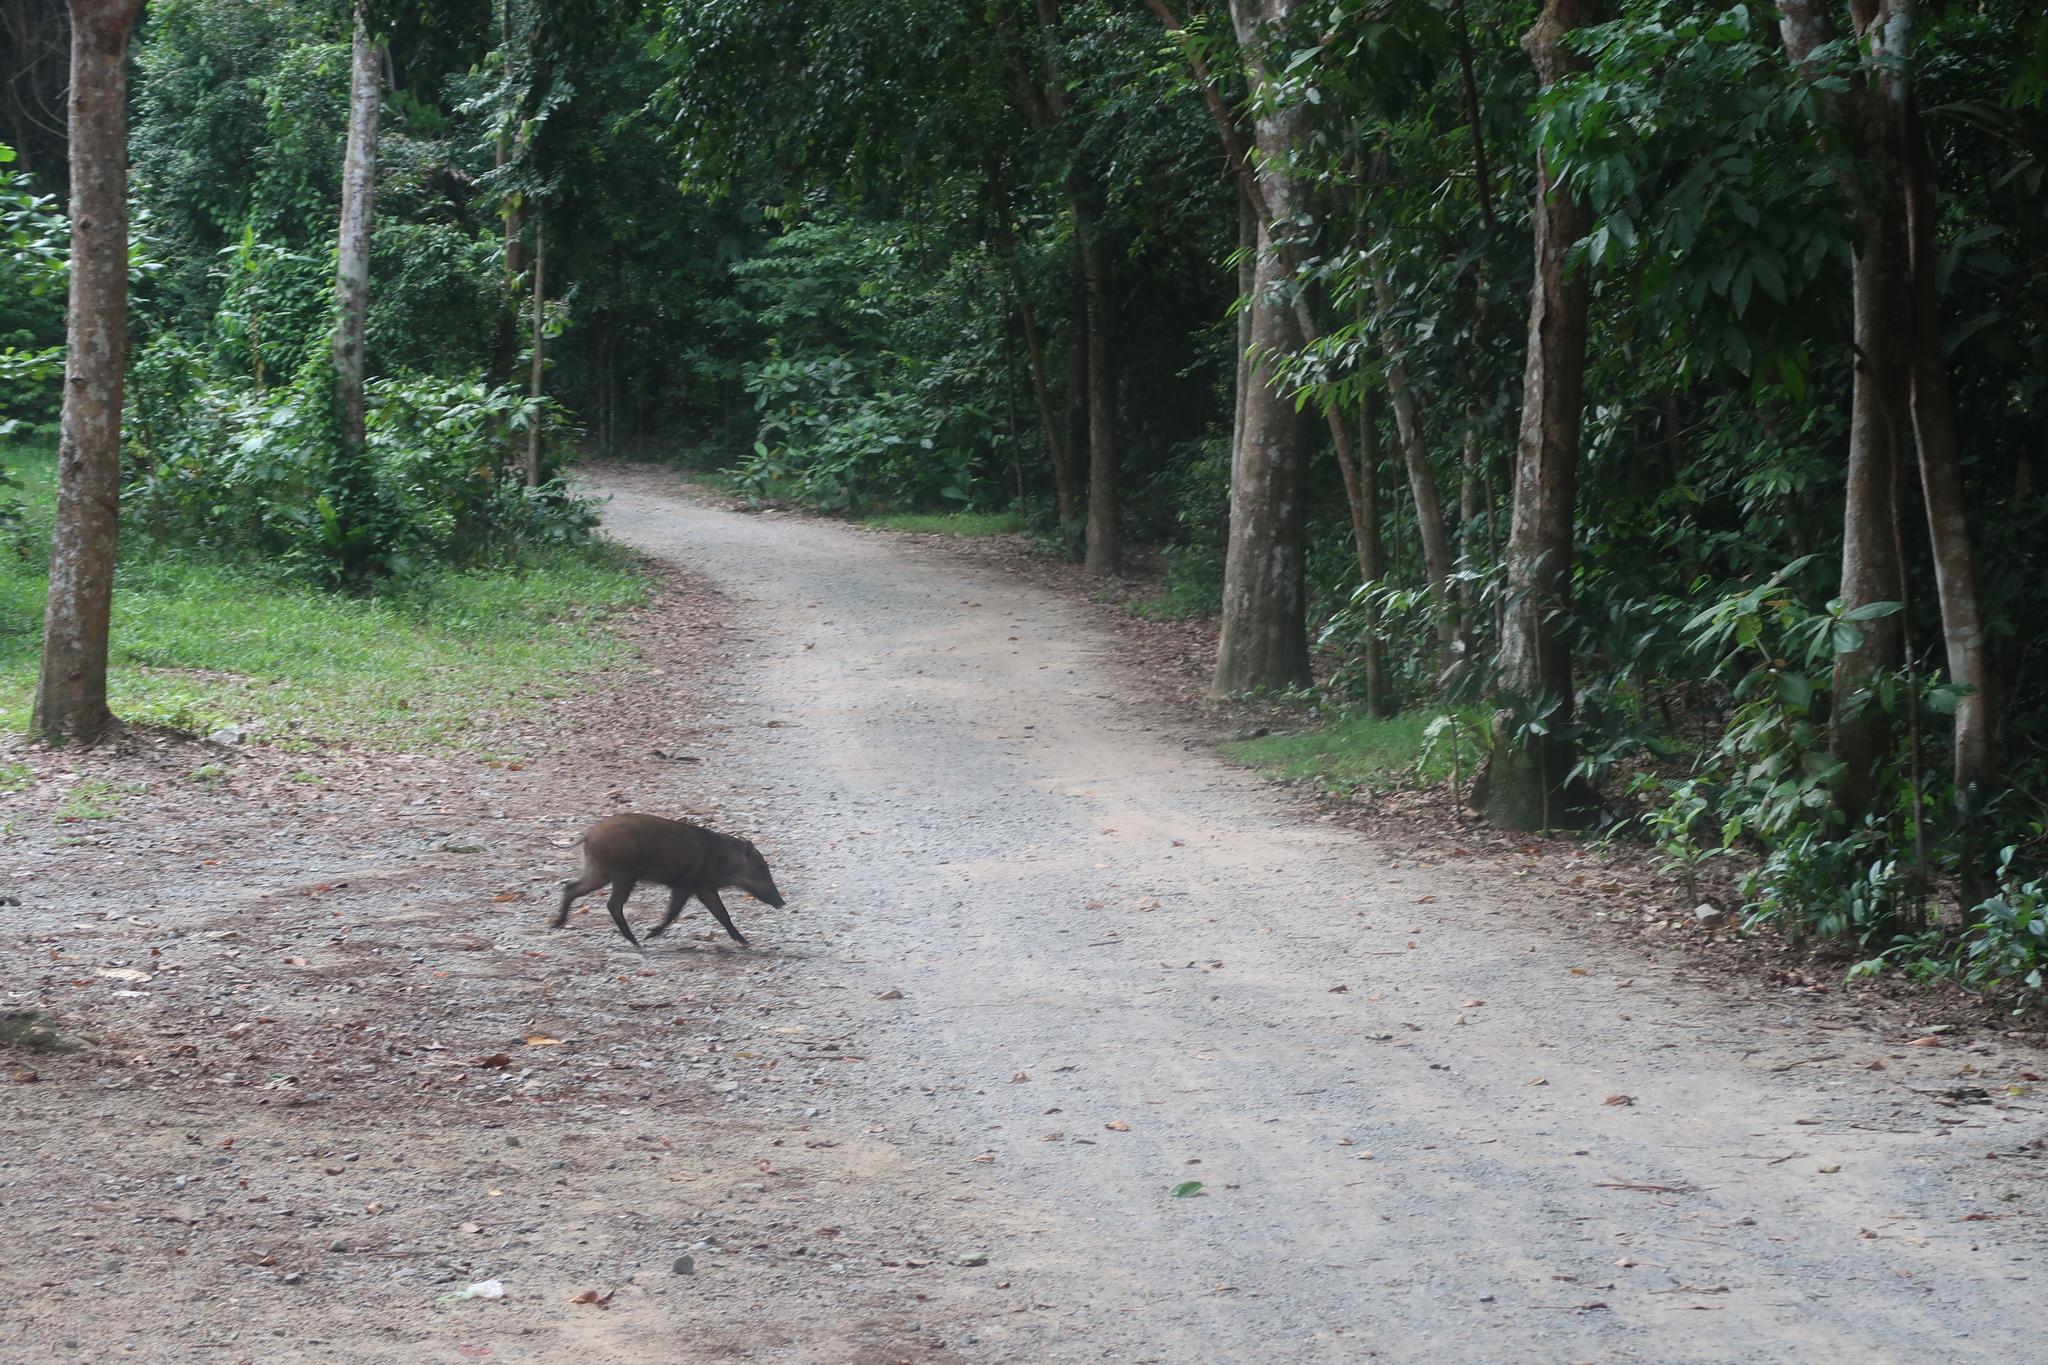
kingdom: Animalia
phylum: Chordata
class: Mammalia
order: Artiodactyla
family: Suidae
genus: Sus
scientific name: Sus scrofa
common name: Wild boar
